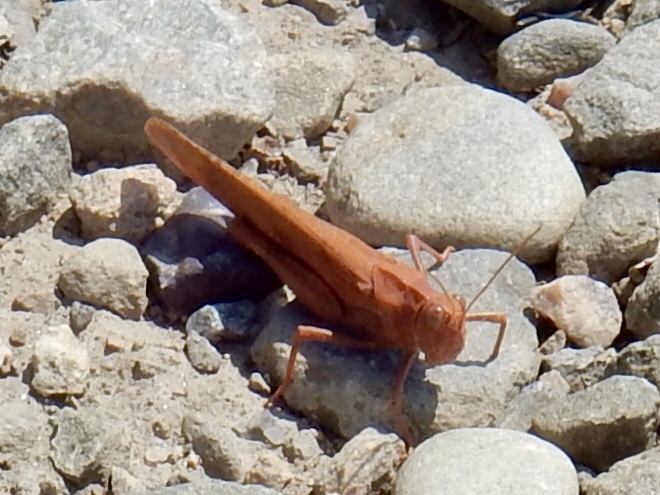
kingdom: Animalia
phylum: Arthropoda
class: Insecta
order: Orthoptera
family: Acrididae
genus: Dissosteira
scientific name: Dissosteira carolina
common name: Carolina grasshopper
